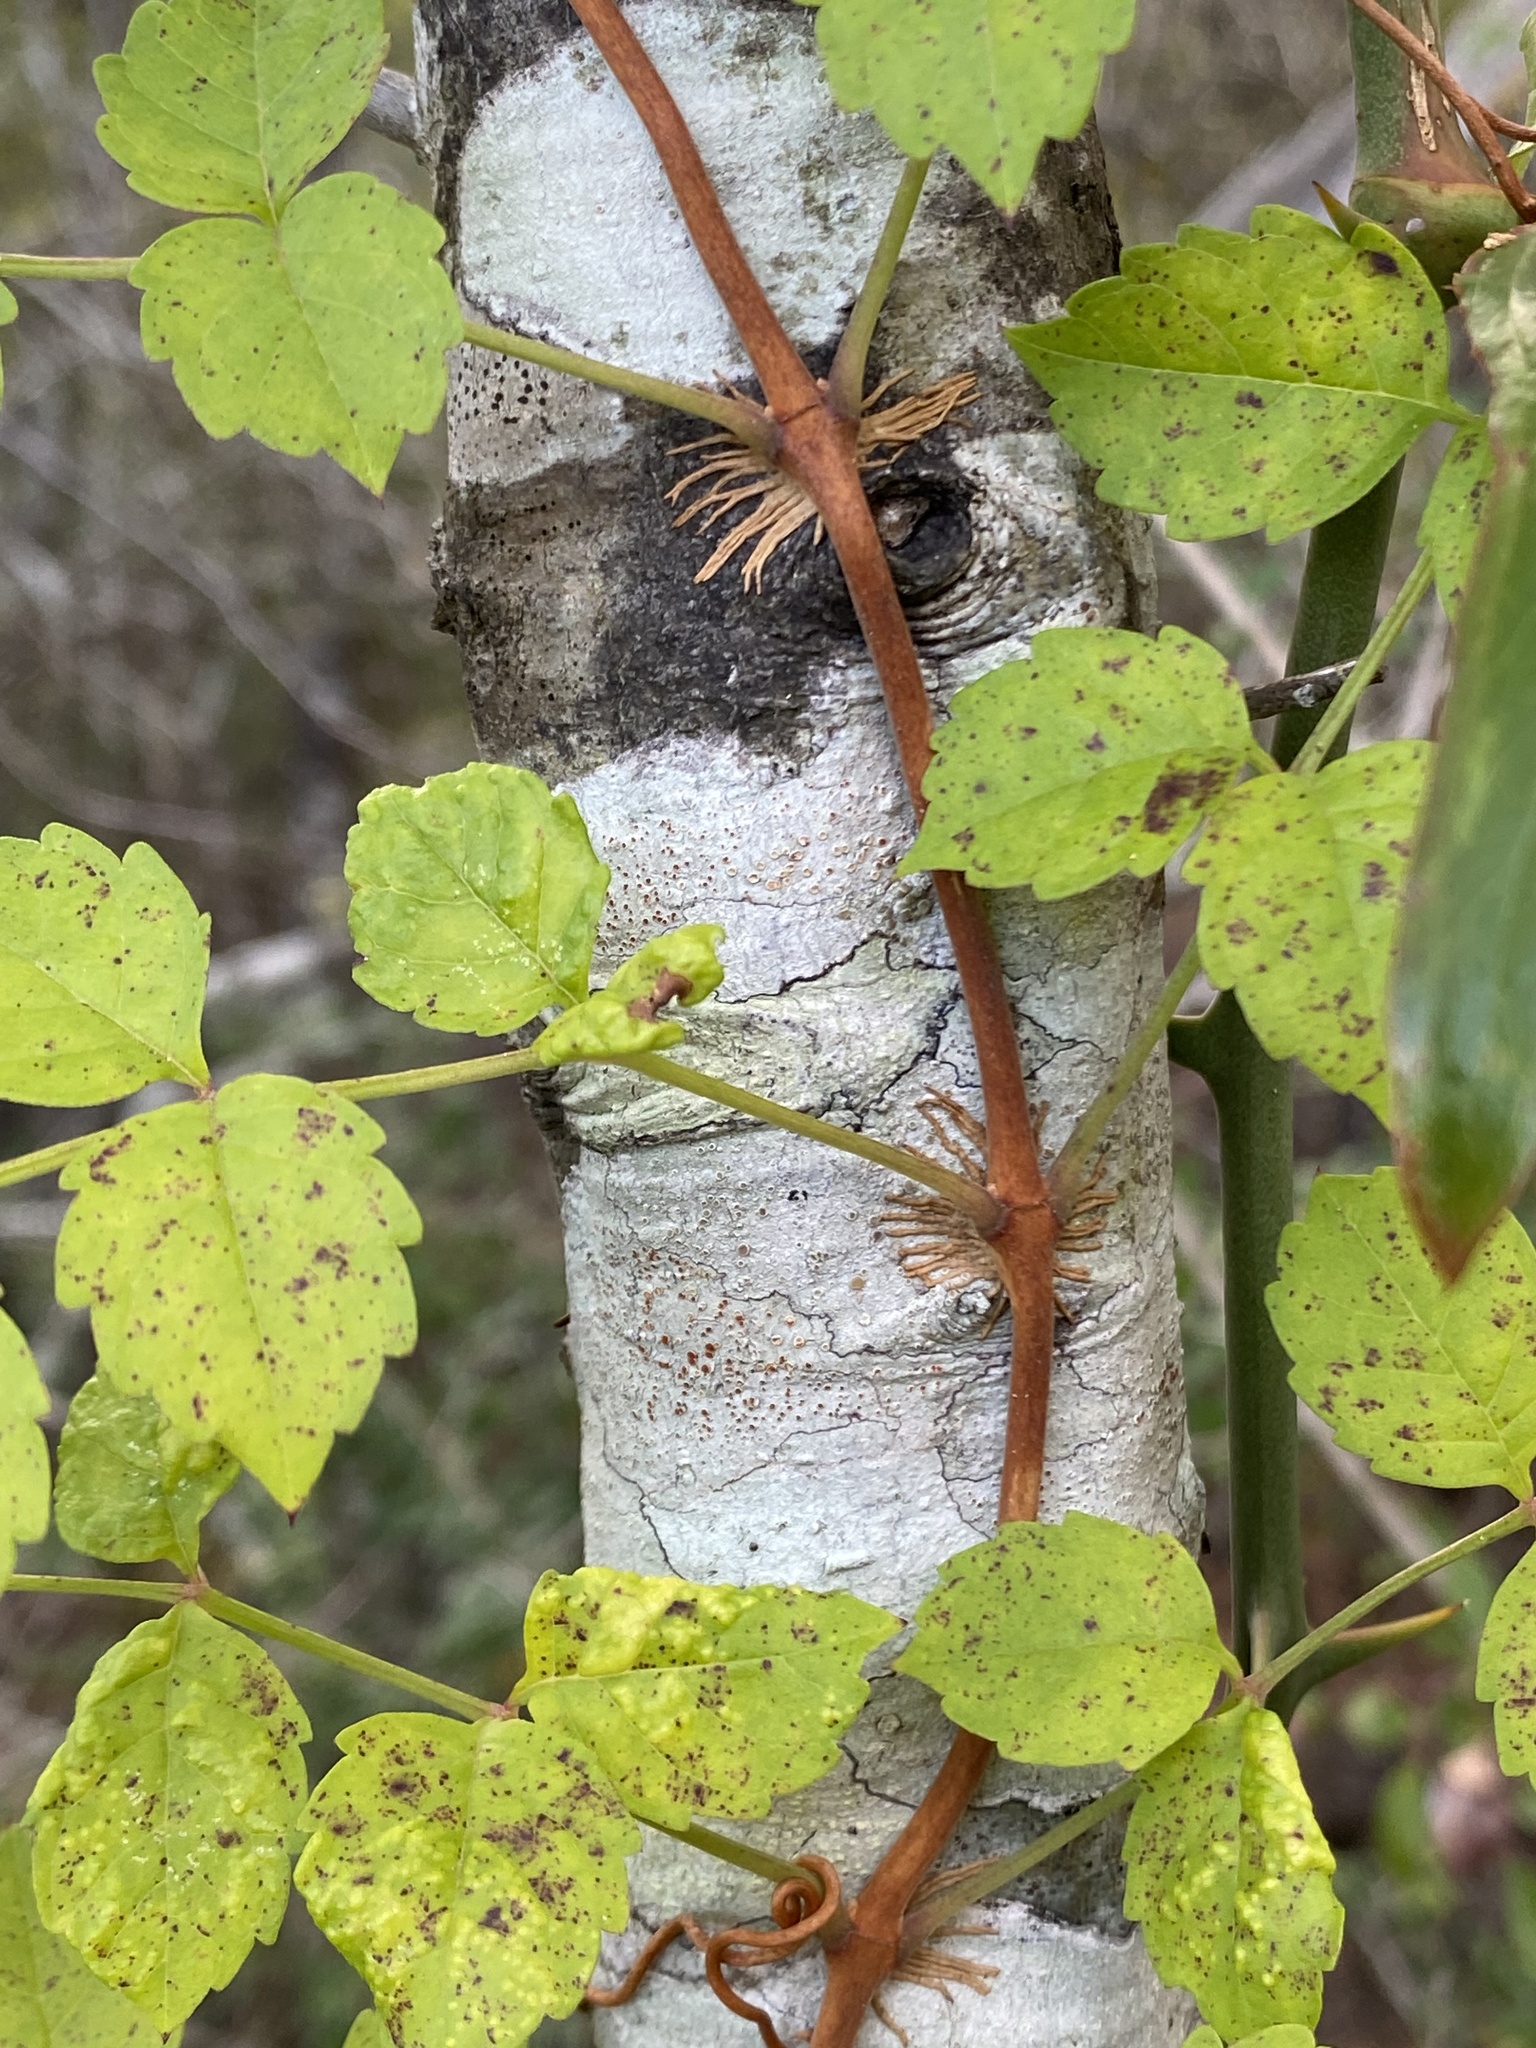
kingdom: Plantae
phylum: Tracheophyta
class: Magnoliopsida
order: Lamiales
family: Bignoniaceae
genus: Campsis
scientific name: Campsis radicans
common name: Trumpet-creeper
